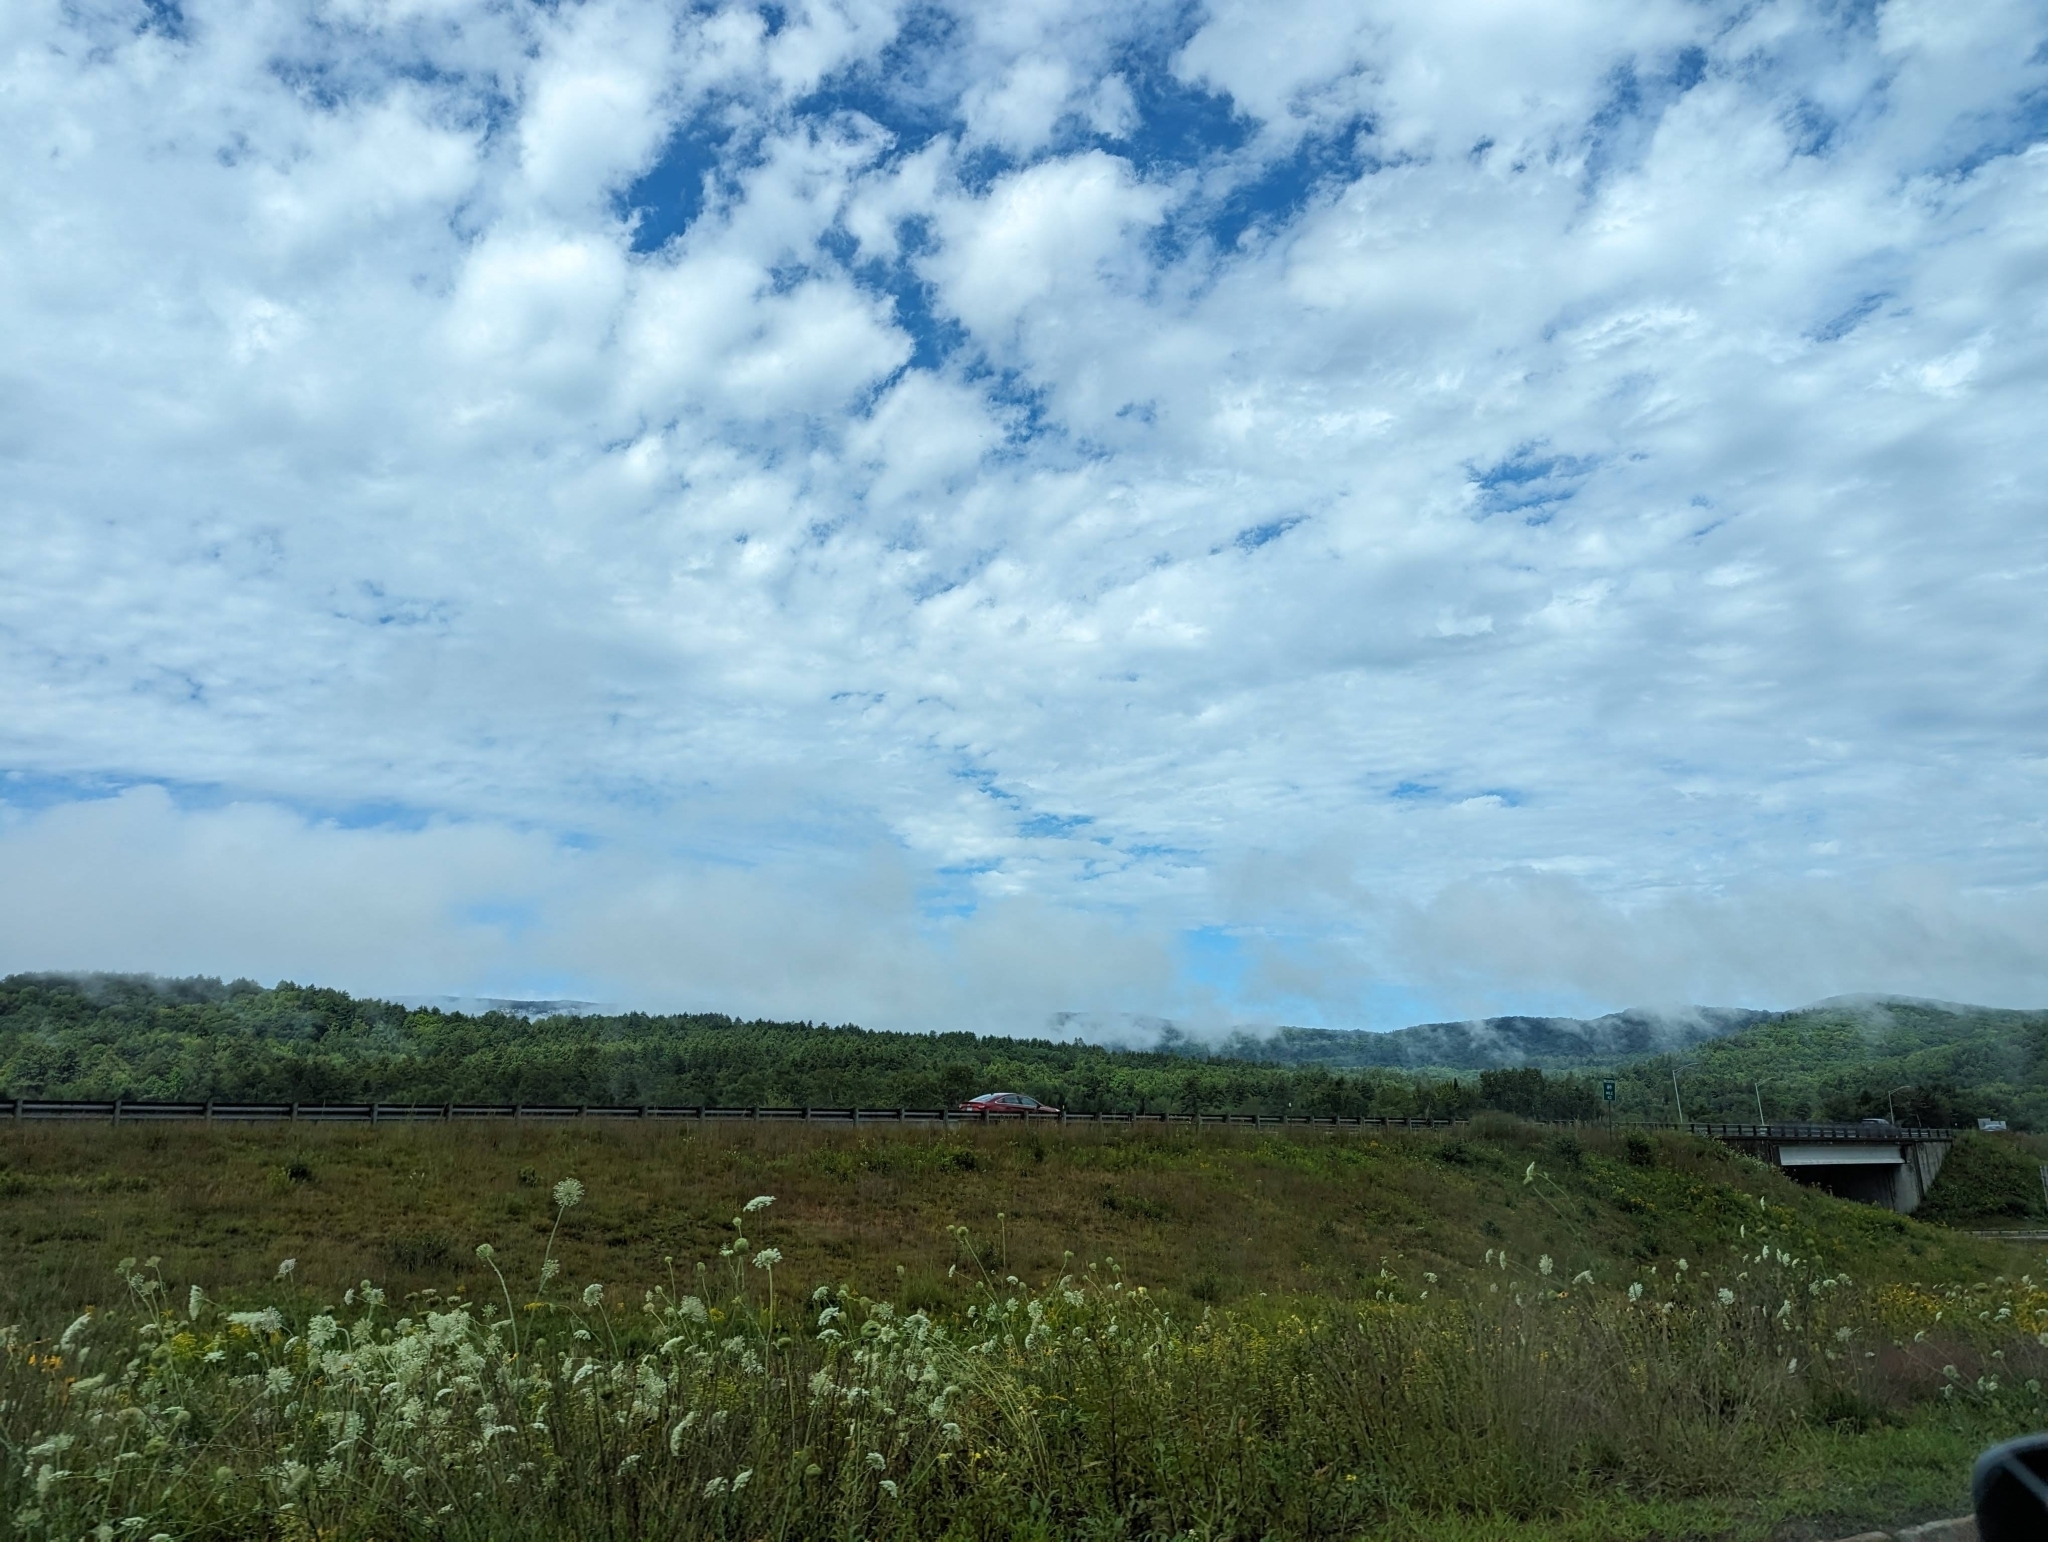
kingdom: Plantae
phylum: Tracheophyta
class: Magnoliopsida
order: Apiales
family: Apiaceae
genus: Daucus
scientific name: Daucus carota
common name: Wild carrot
